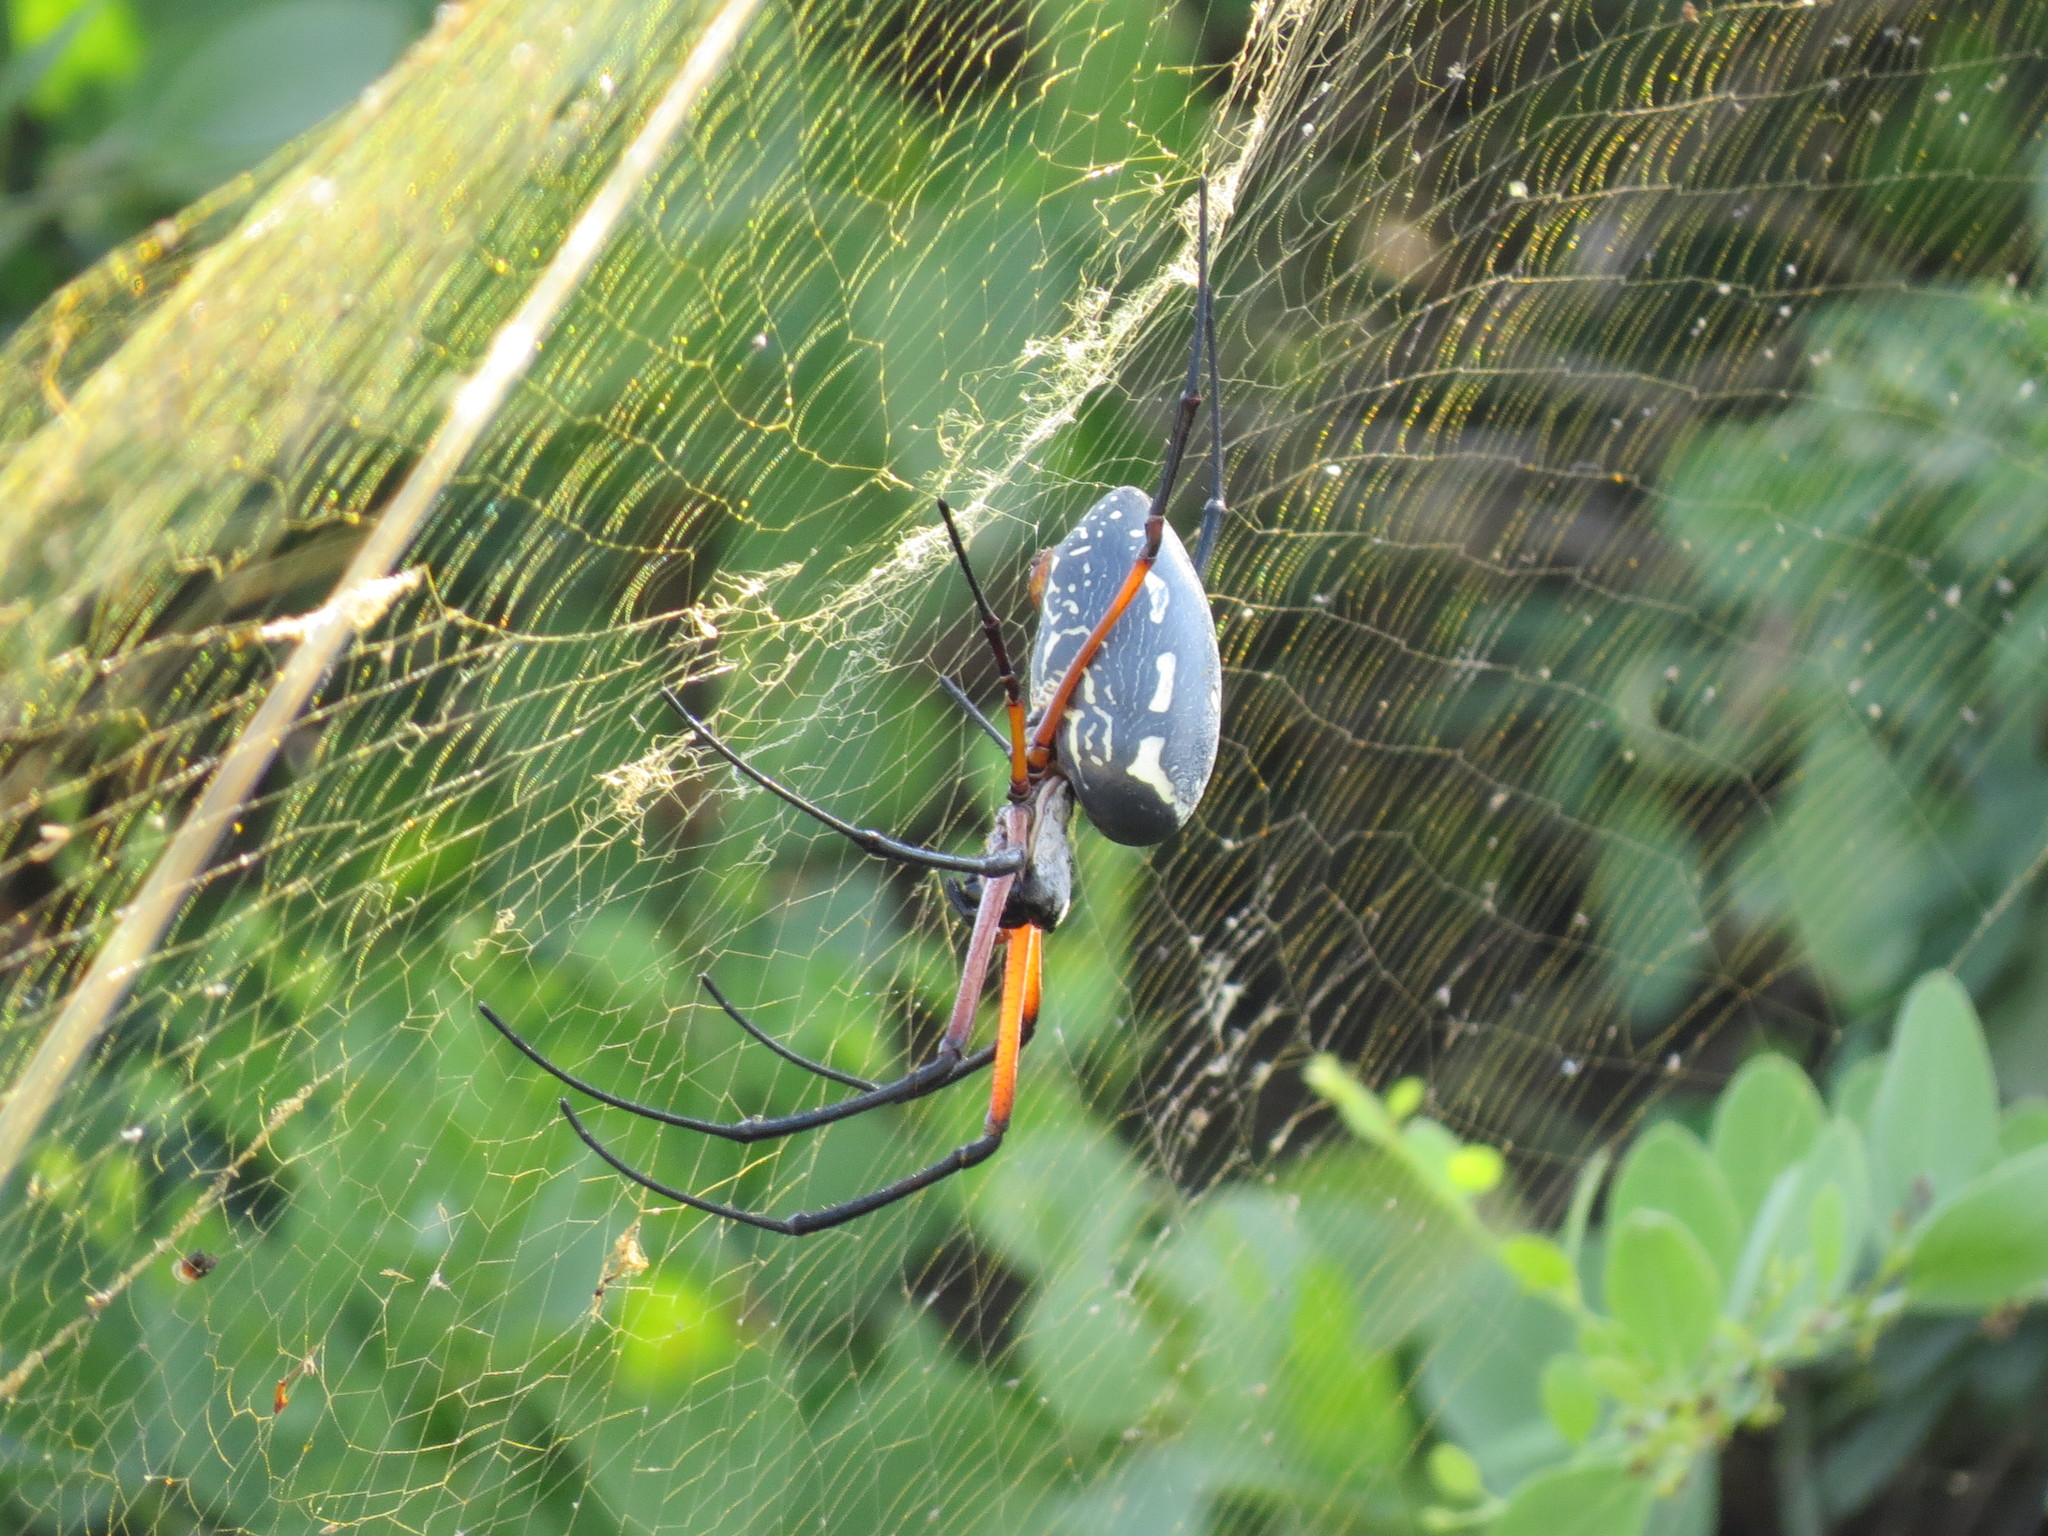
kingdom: Animalia
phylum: Arthropoda
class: Arachnida
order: Araneae
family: Araneidae
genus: Trichonephila
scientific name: Trichonephila sumptuosa
